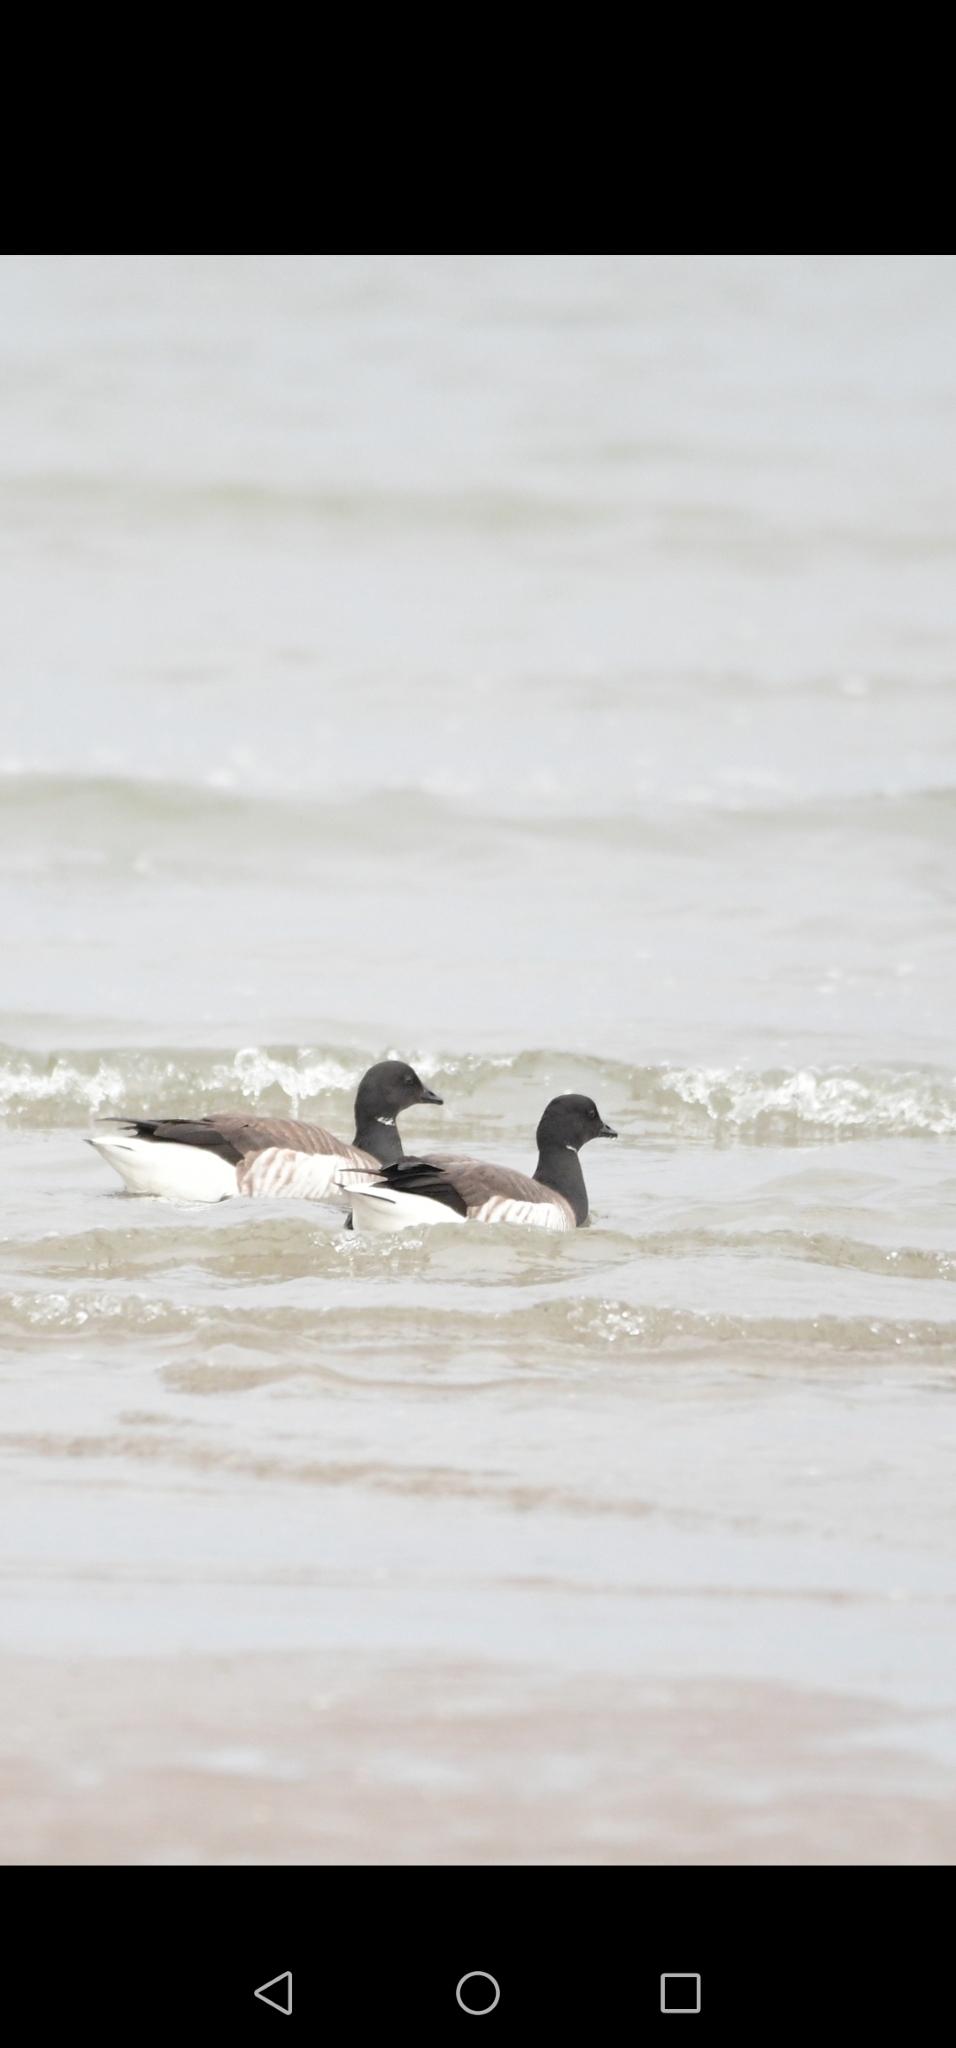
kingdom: Animalia
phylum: Chordata
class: Aves
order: Anseriformes
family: Anatidae
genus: Branta
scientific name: Branta bernicla
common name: Brant goose
